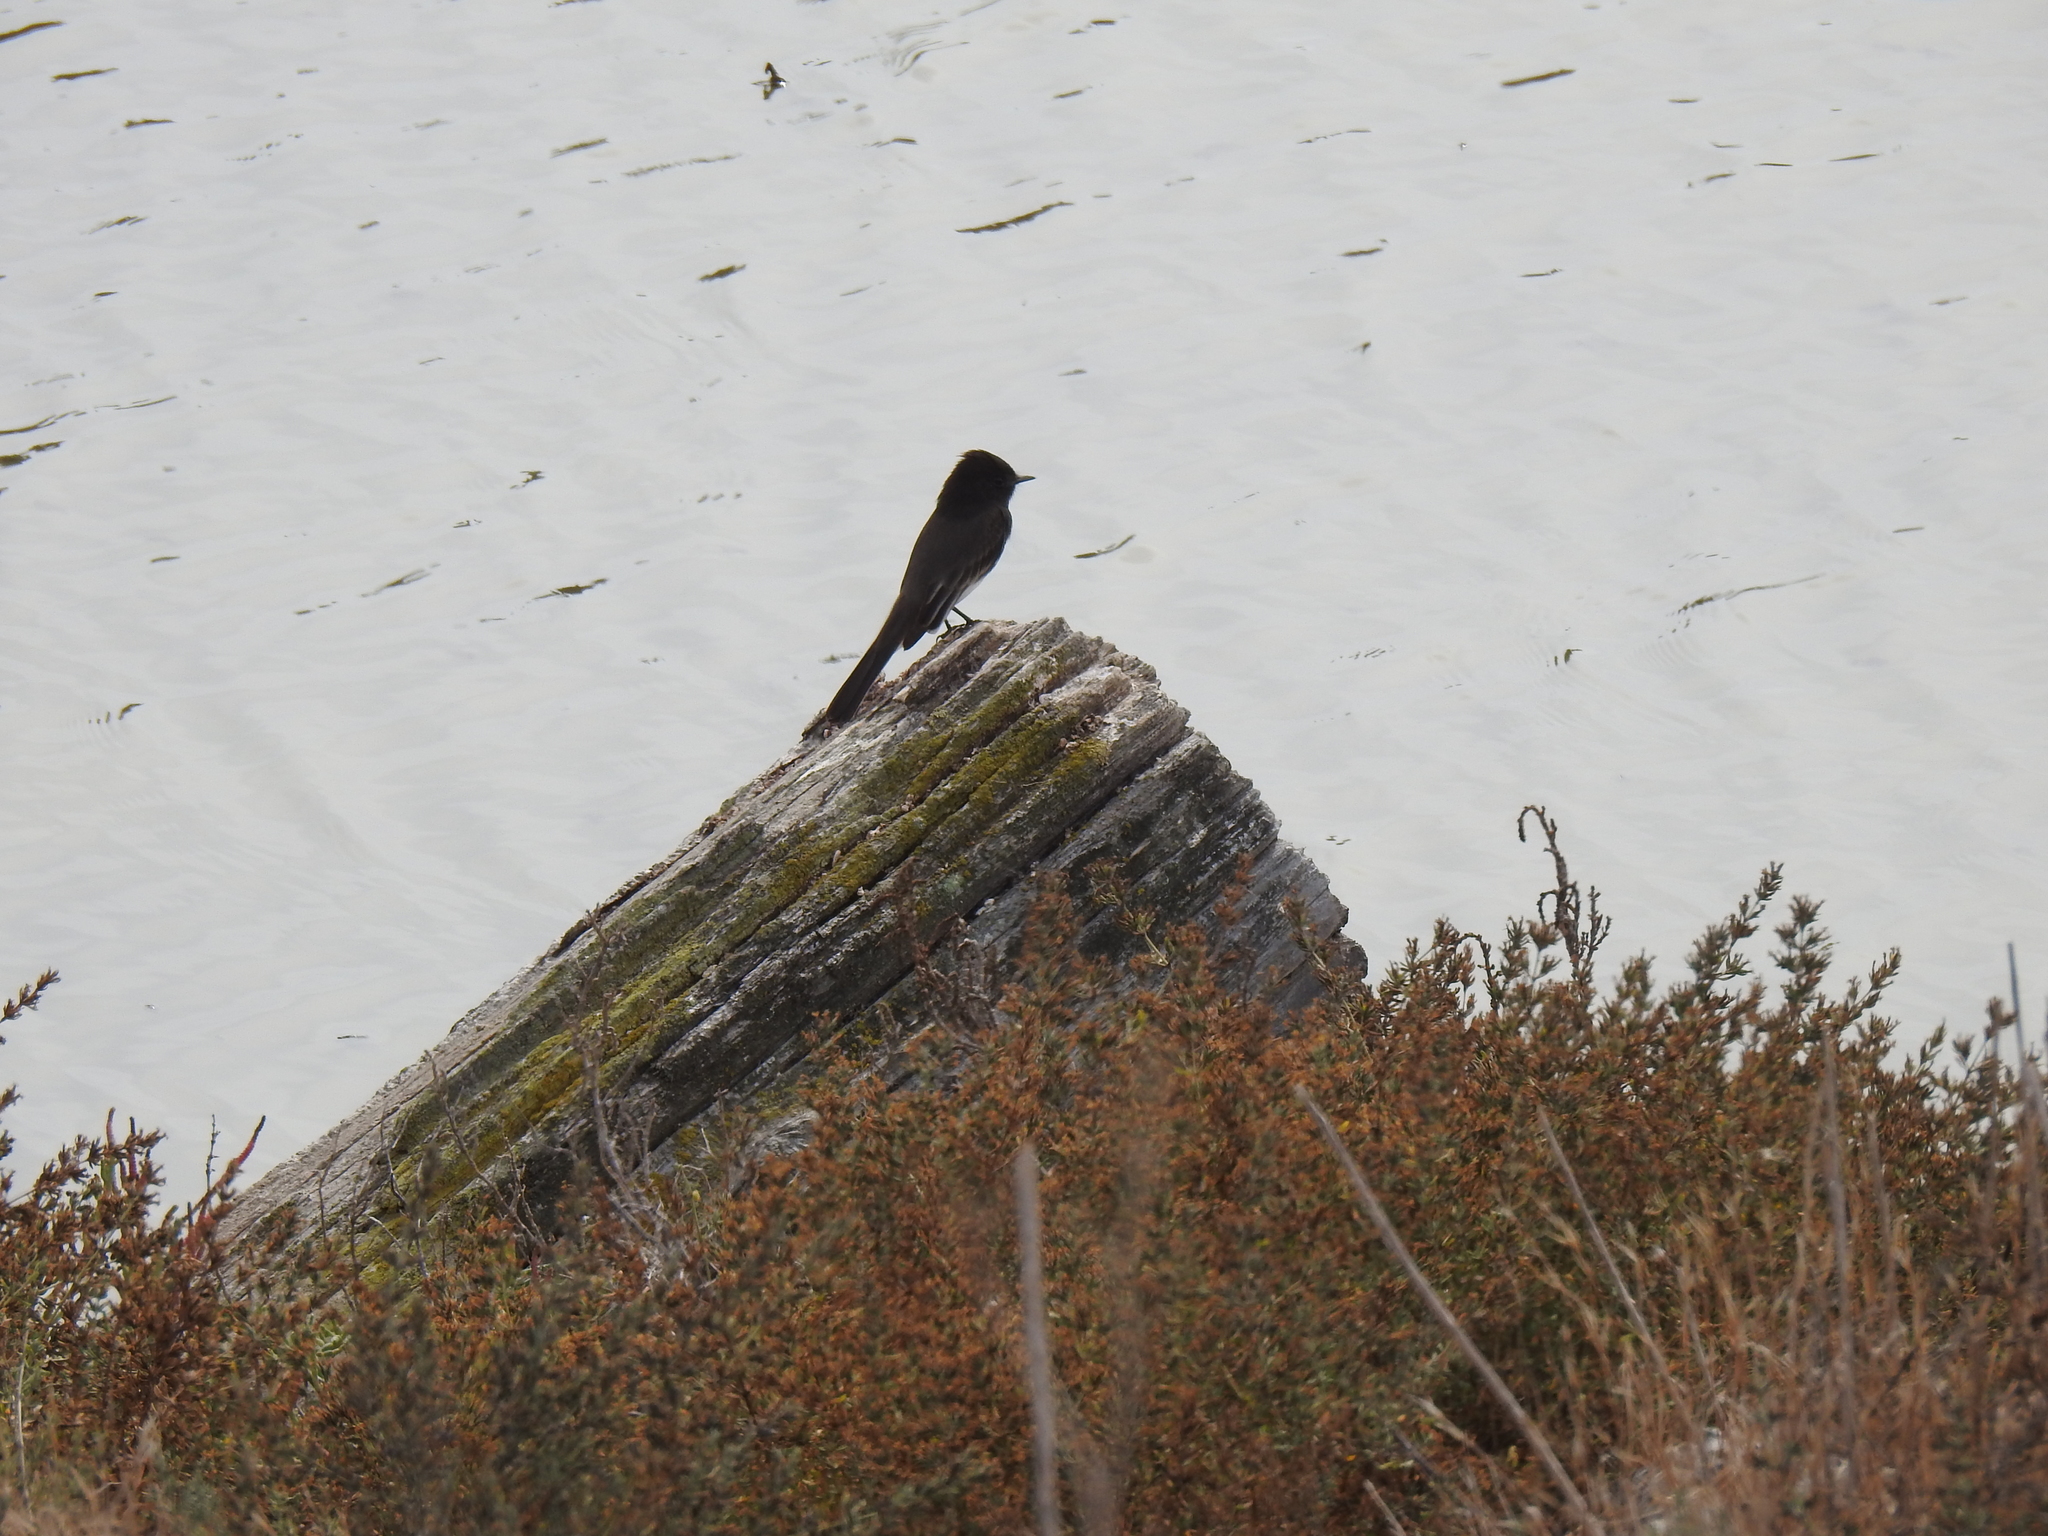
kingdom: Animalia
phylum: Chordata
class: Aves
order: Passeriformes
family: Tyrannidae
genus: Sayornis
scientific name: Sayornis nigricans
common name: Black phoebe
